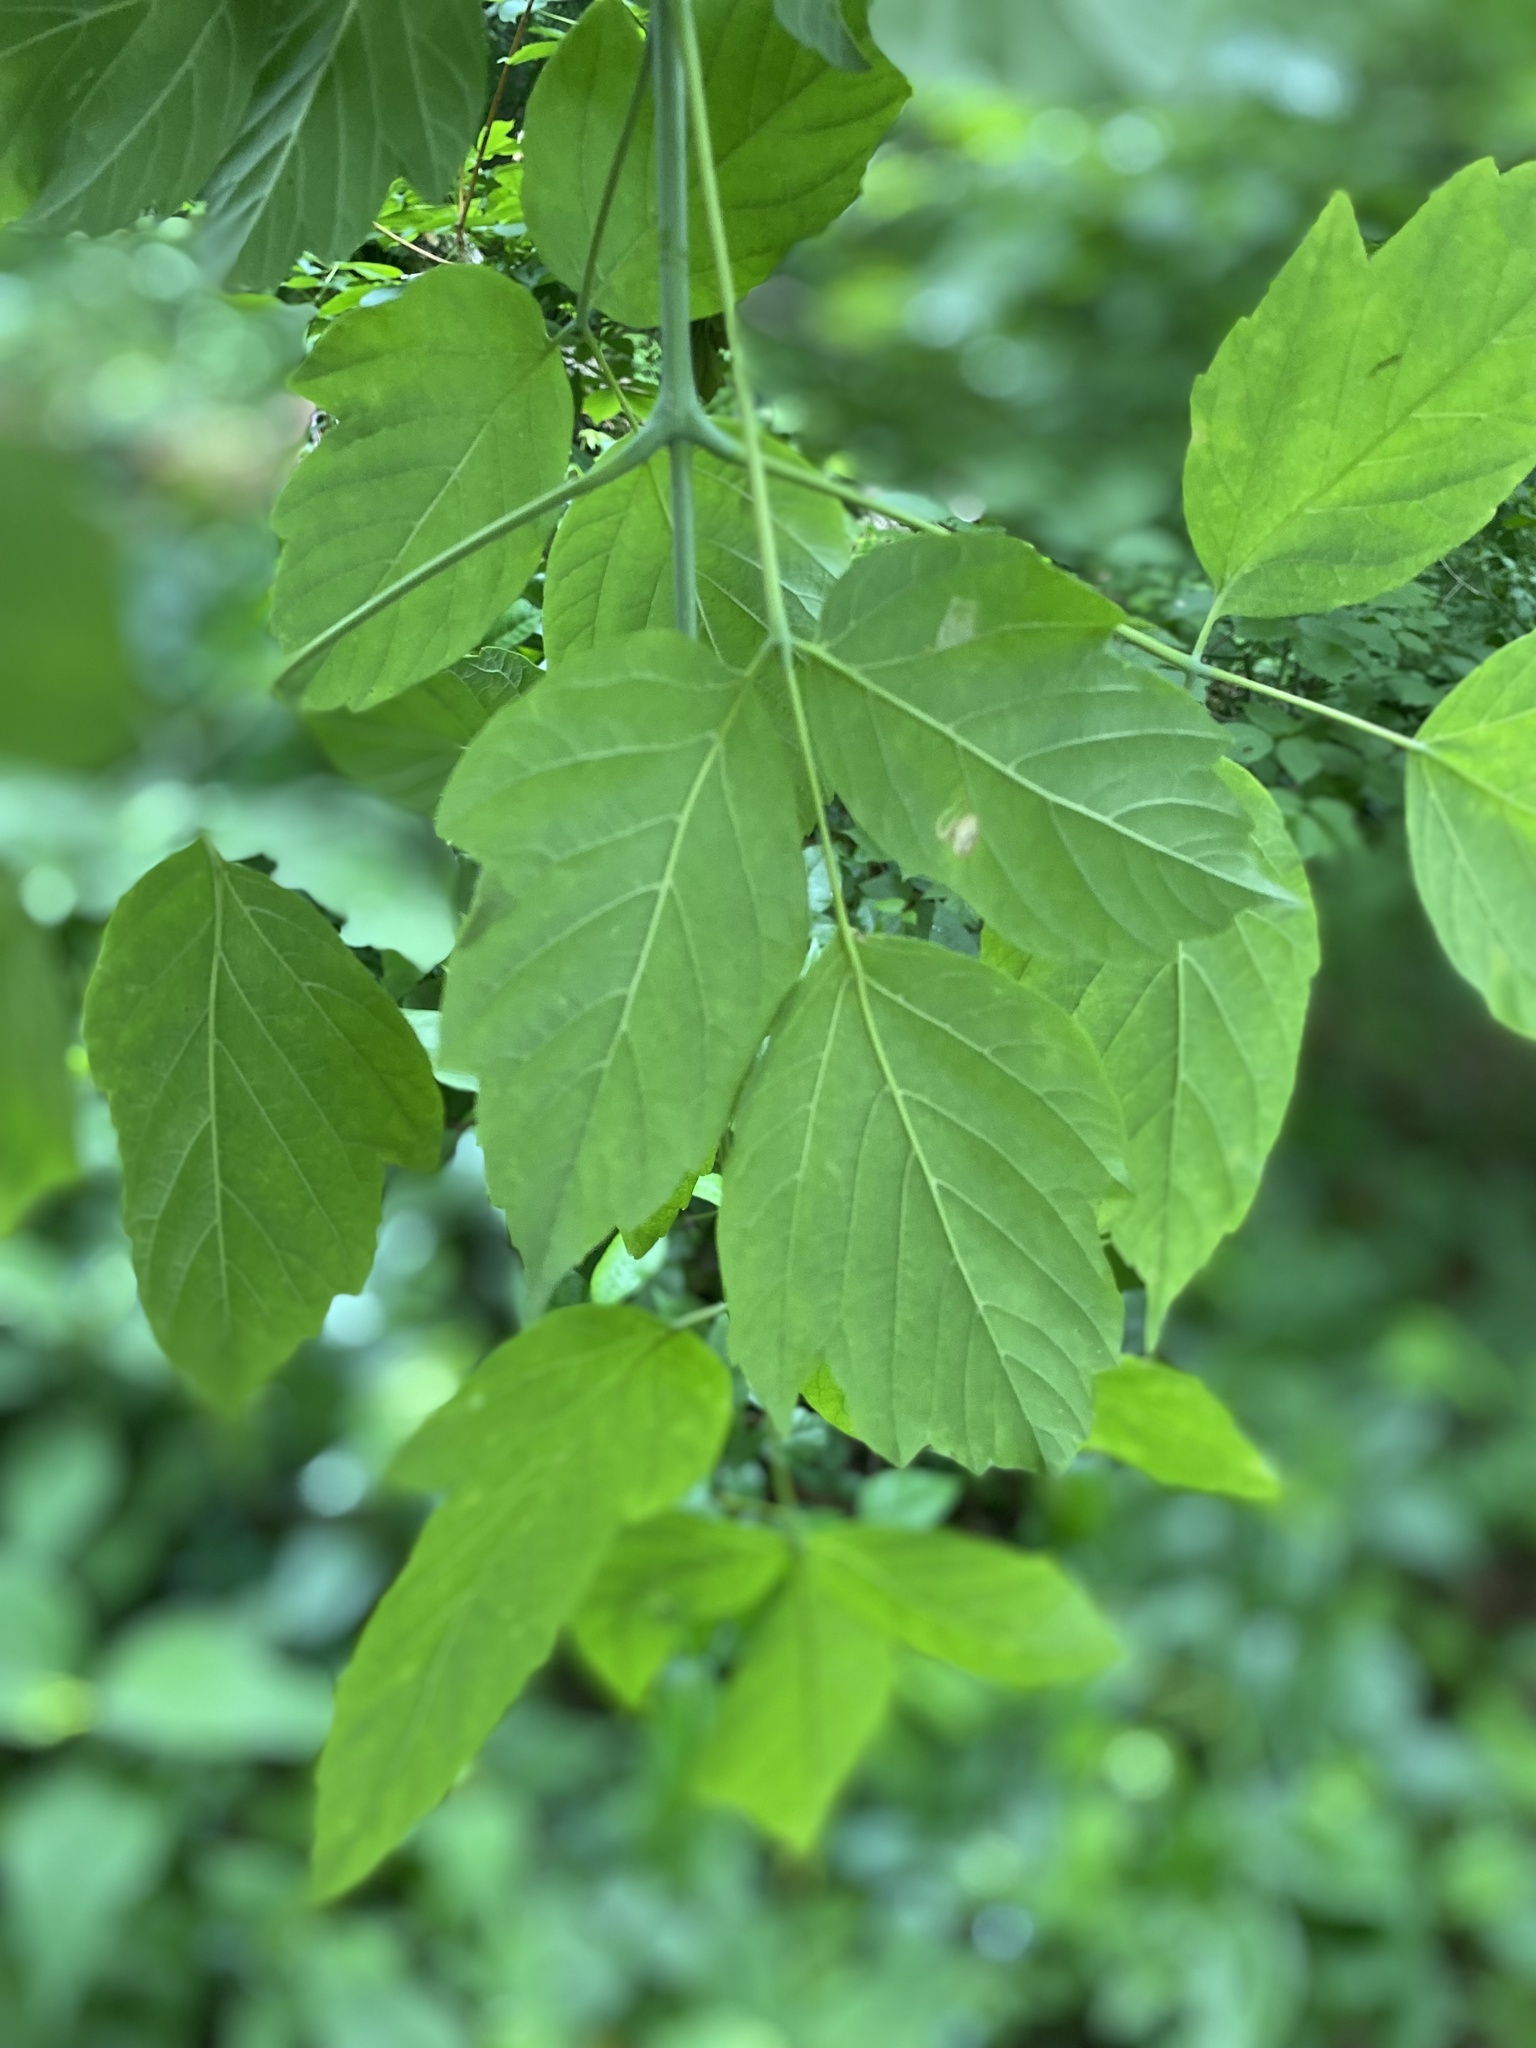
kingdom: Plantae
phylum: Tracheophyta
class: Magnoliopsida
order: Sapindales
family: Sapindaceae
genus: Acer
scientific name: Acer negundo
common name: Ashleaf maple
